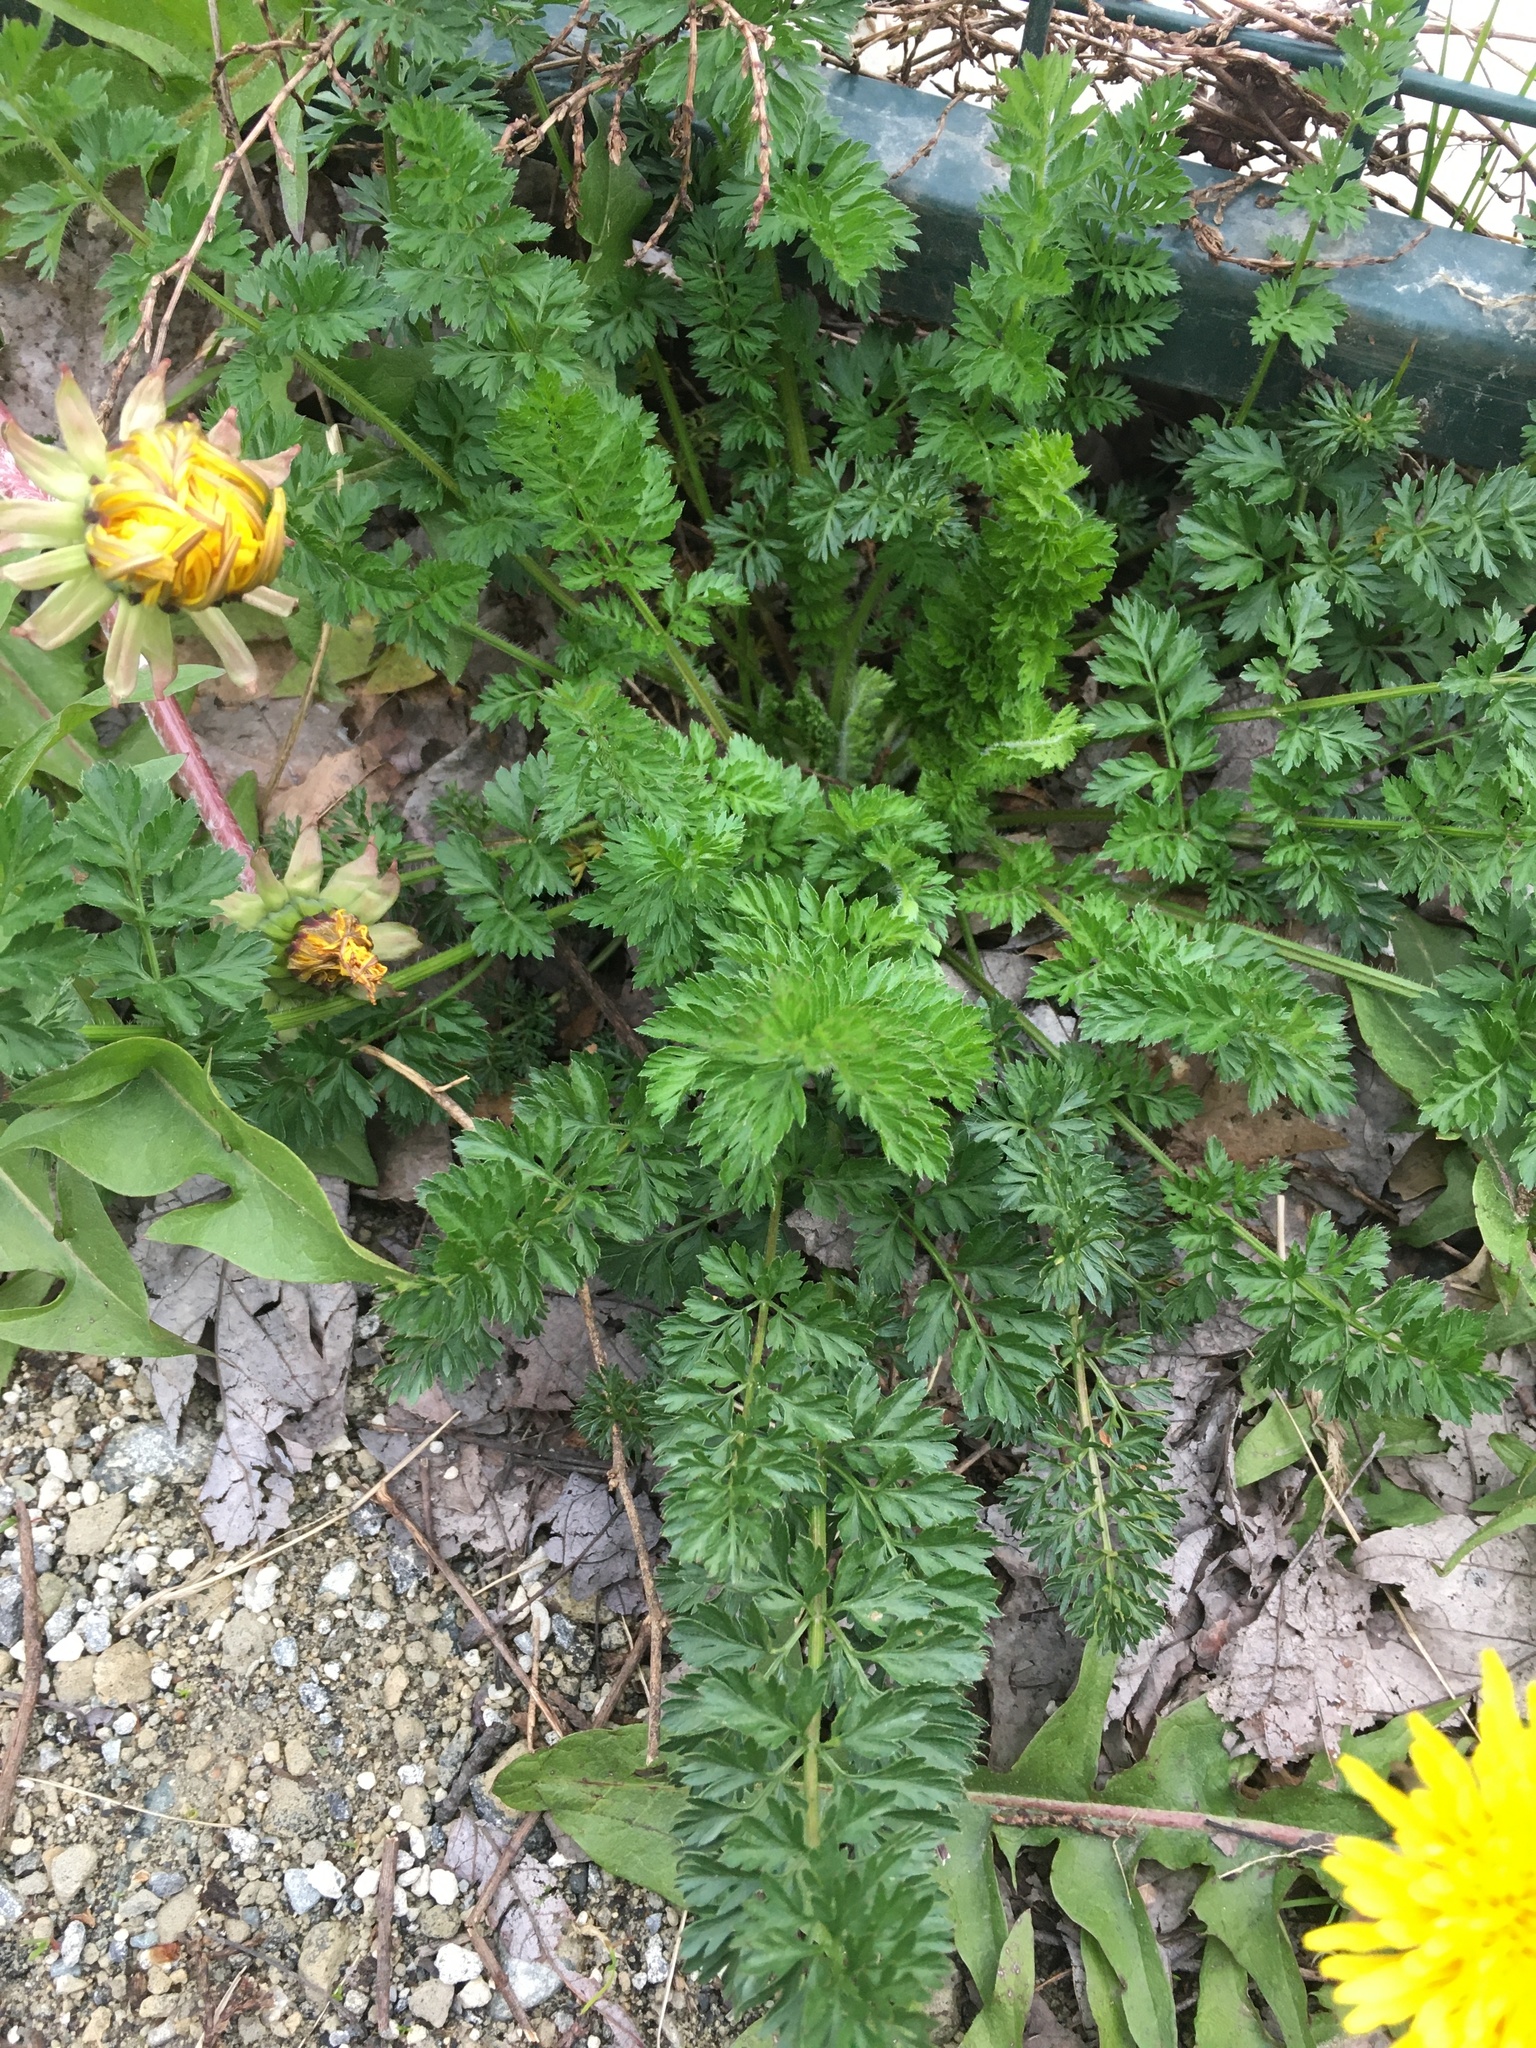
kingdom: Plantae
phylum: Tracheophyta
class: Magnoliopsida
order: Apiales
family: Apiaceae
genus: Daucus
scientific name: Daucus carota
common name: Wild carrot
